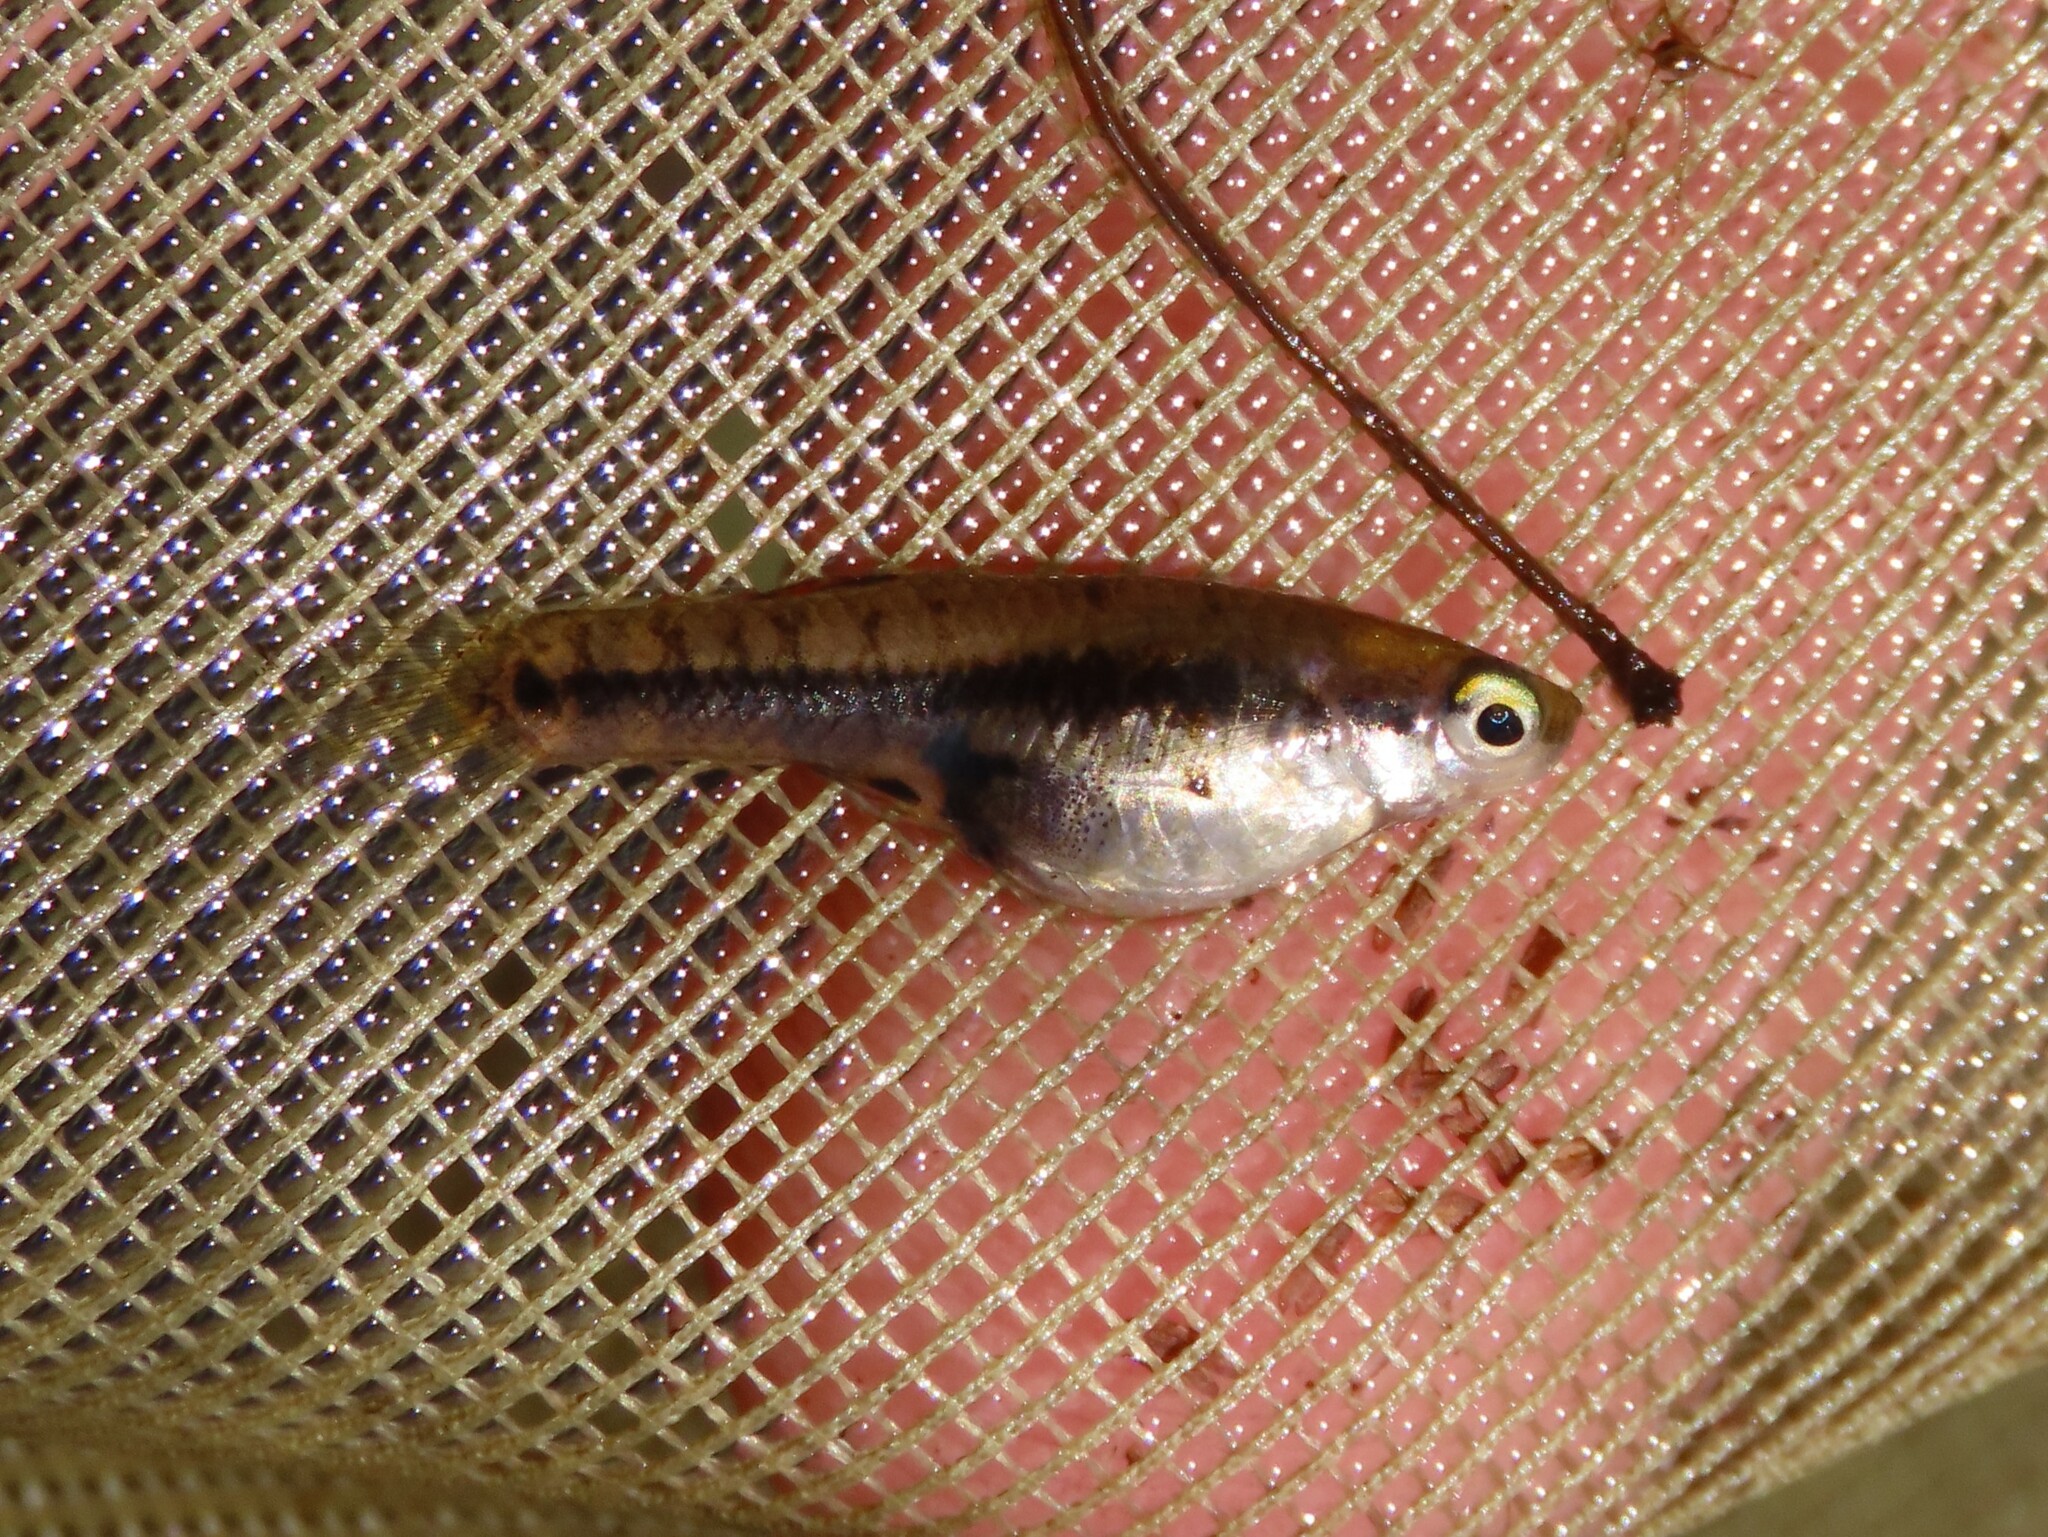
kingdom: Animalia
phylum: Chordata
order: Cyprinodontiformes
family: Poeciliidae
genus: Heterandria
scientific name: Heterandria formosa
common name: Least killifish
